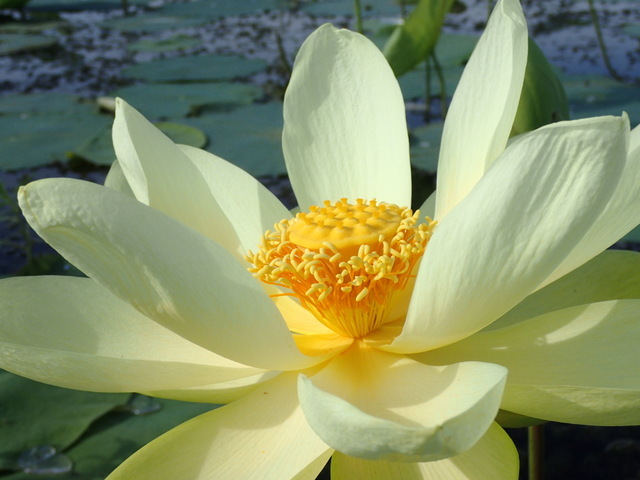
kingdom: Plantae
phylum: Tracheophyta
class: Magnoliopsida
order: Proteales
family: Nelumbonaceae
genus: Nelumbo
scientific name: Nelumbo lutea
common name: American lotus
